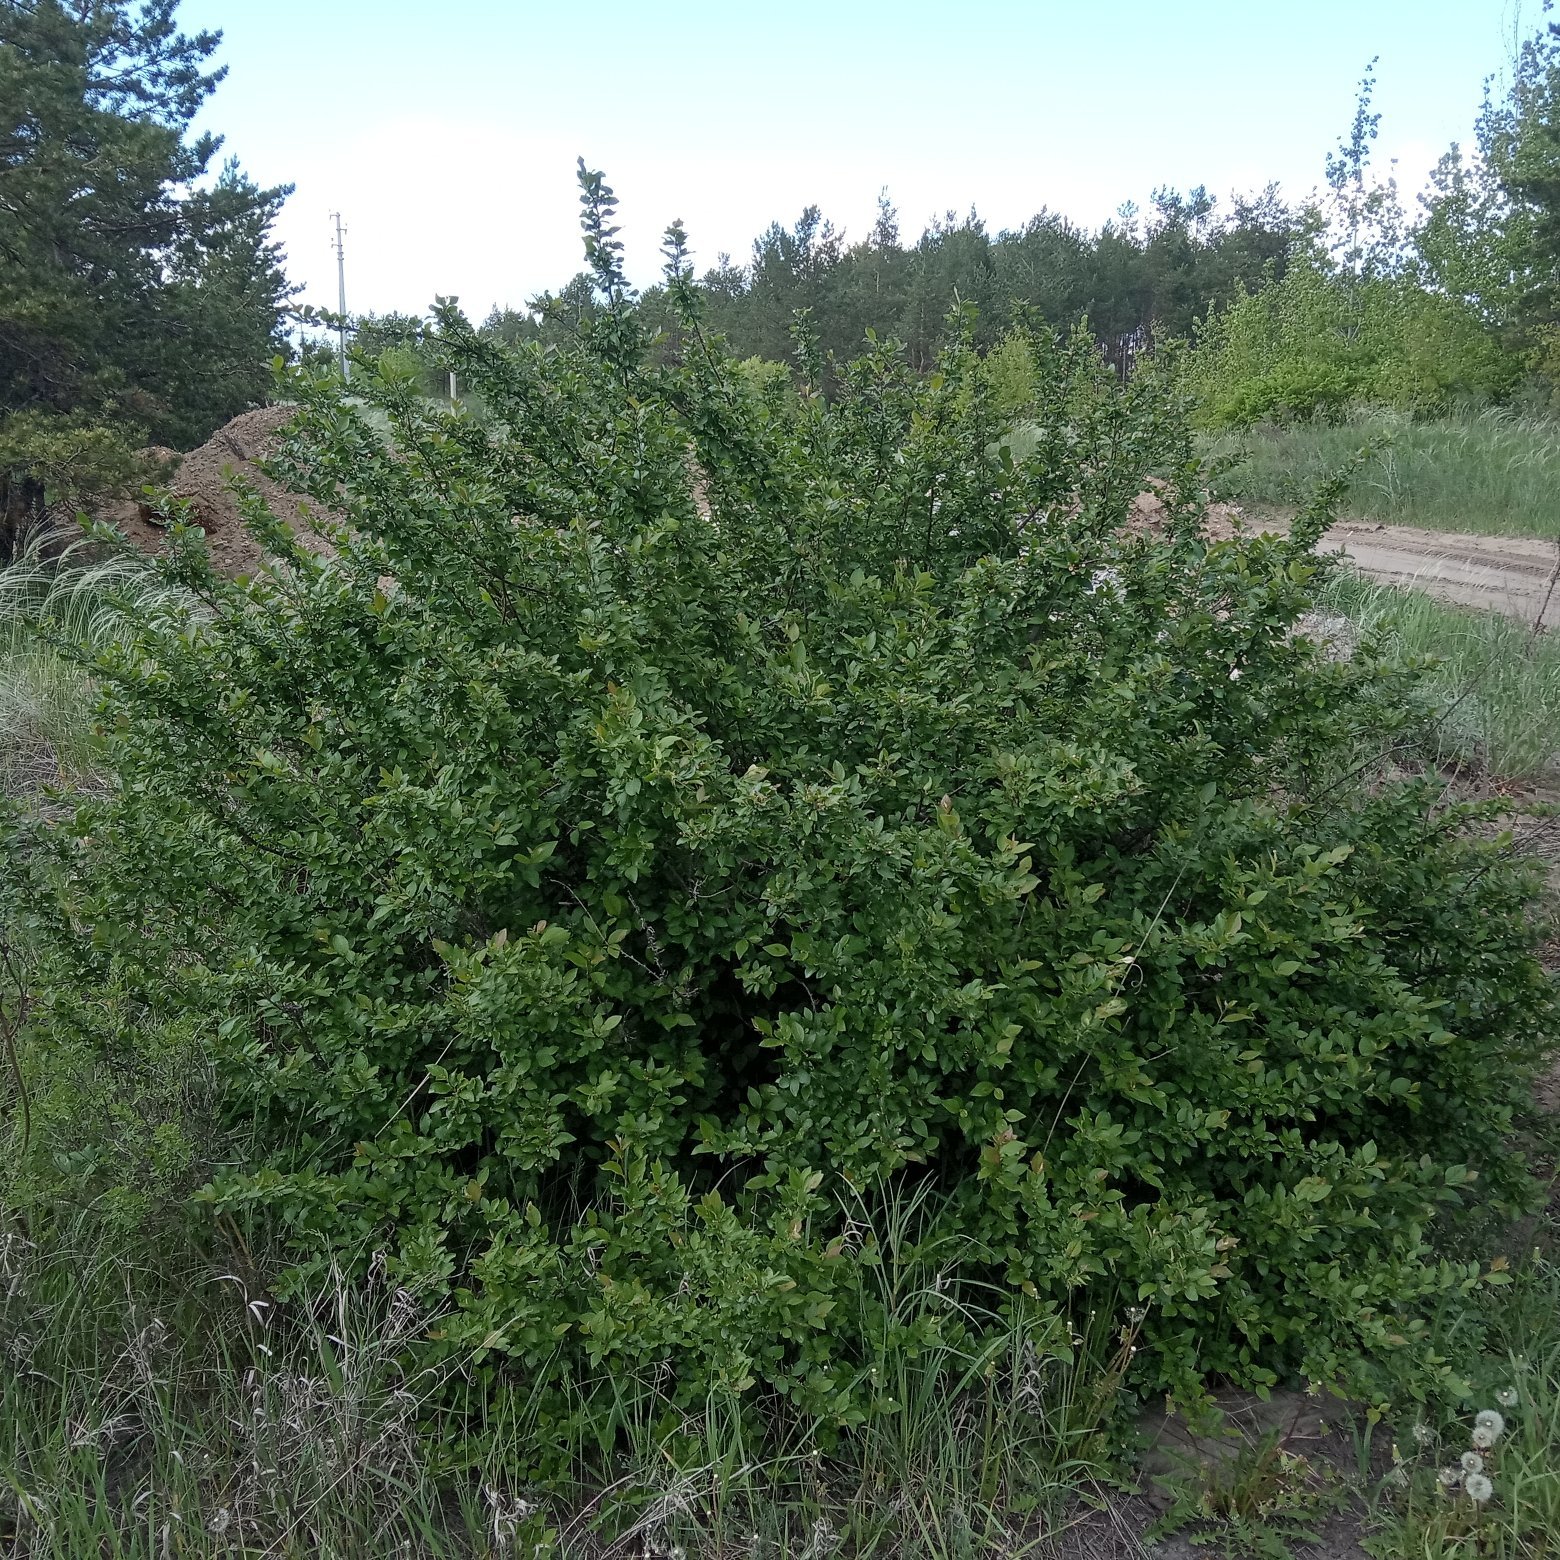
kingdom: Plantae
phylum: Tracheophyta
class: Magnoliopsida
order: Rosales
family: Rosaceae
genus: Cotoneaster
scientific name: Cotoneaster acutifolius
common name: Peking cotoneaster
